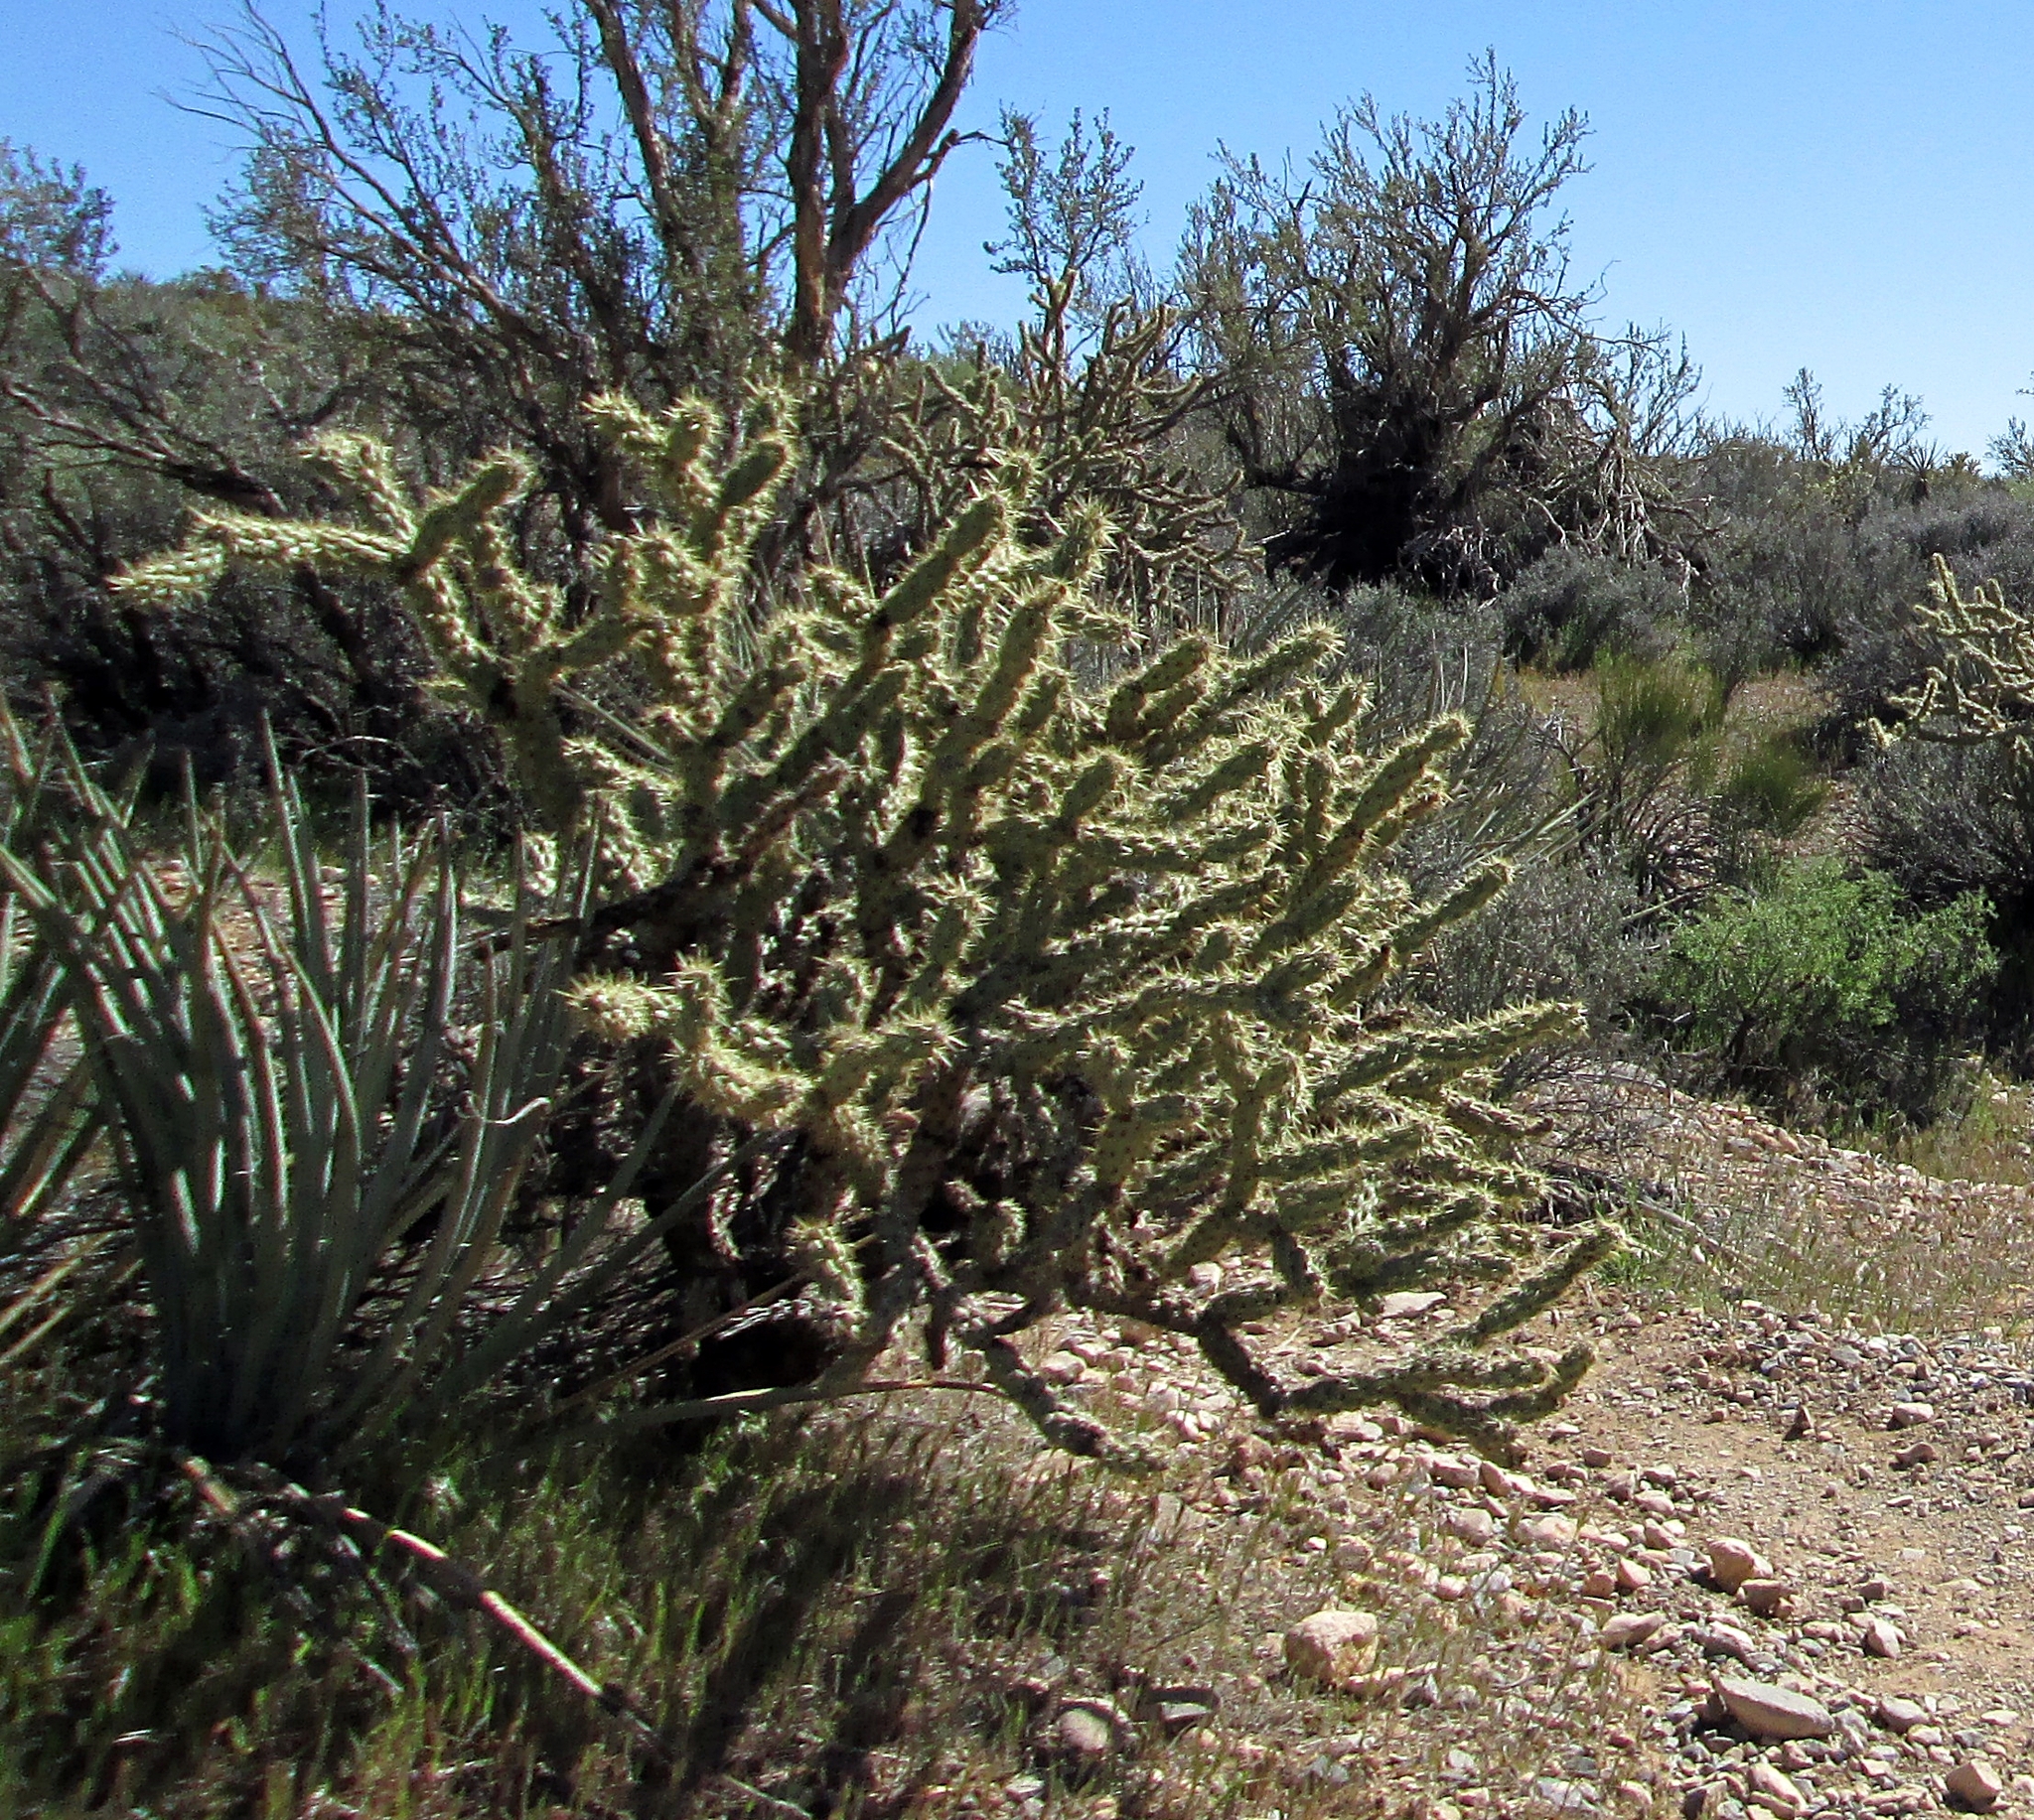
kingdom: Plantae
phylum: Tracheophyta
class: Magnoliopsida
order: Caryophyllales
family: Cactaceae
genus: Cylindropuntia
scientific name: Cylindropuntia acanthocarpa
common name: Buckhorn cholla
